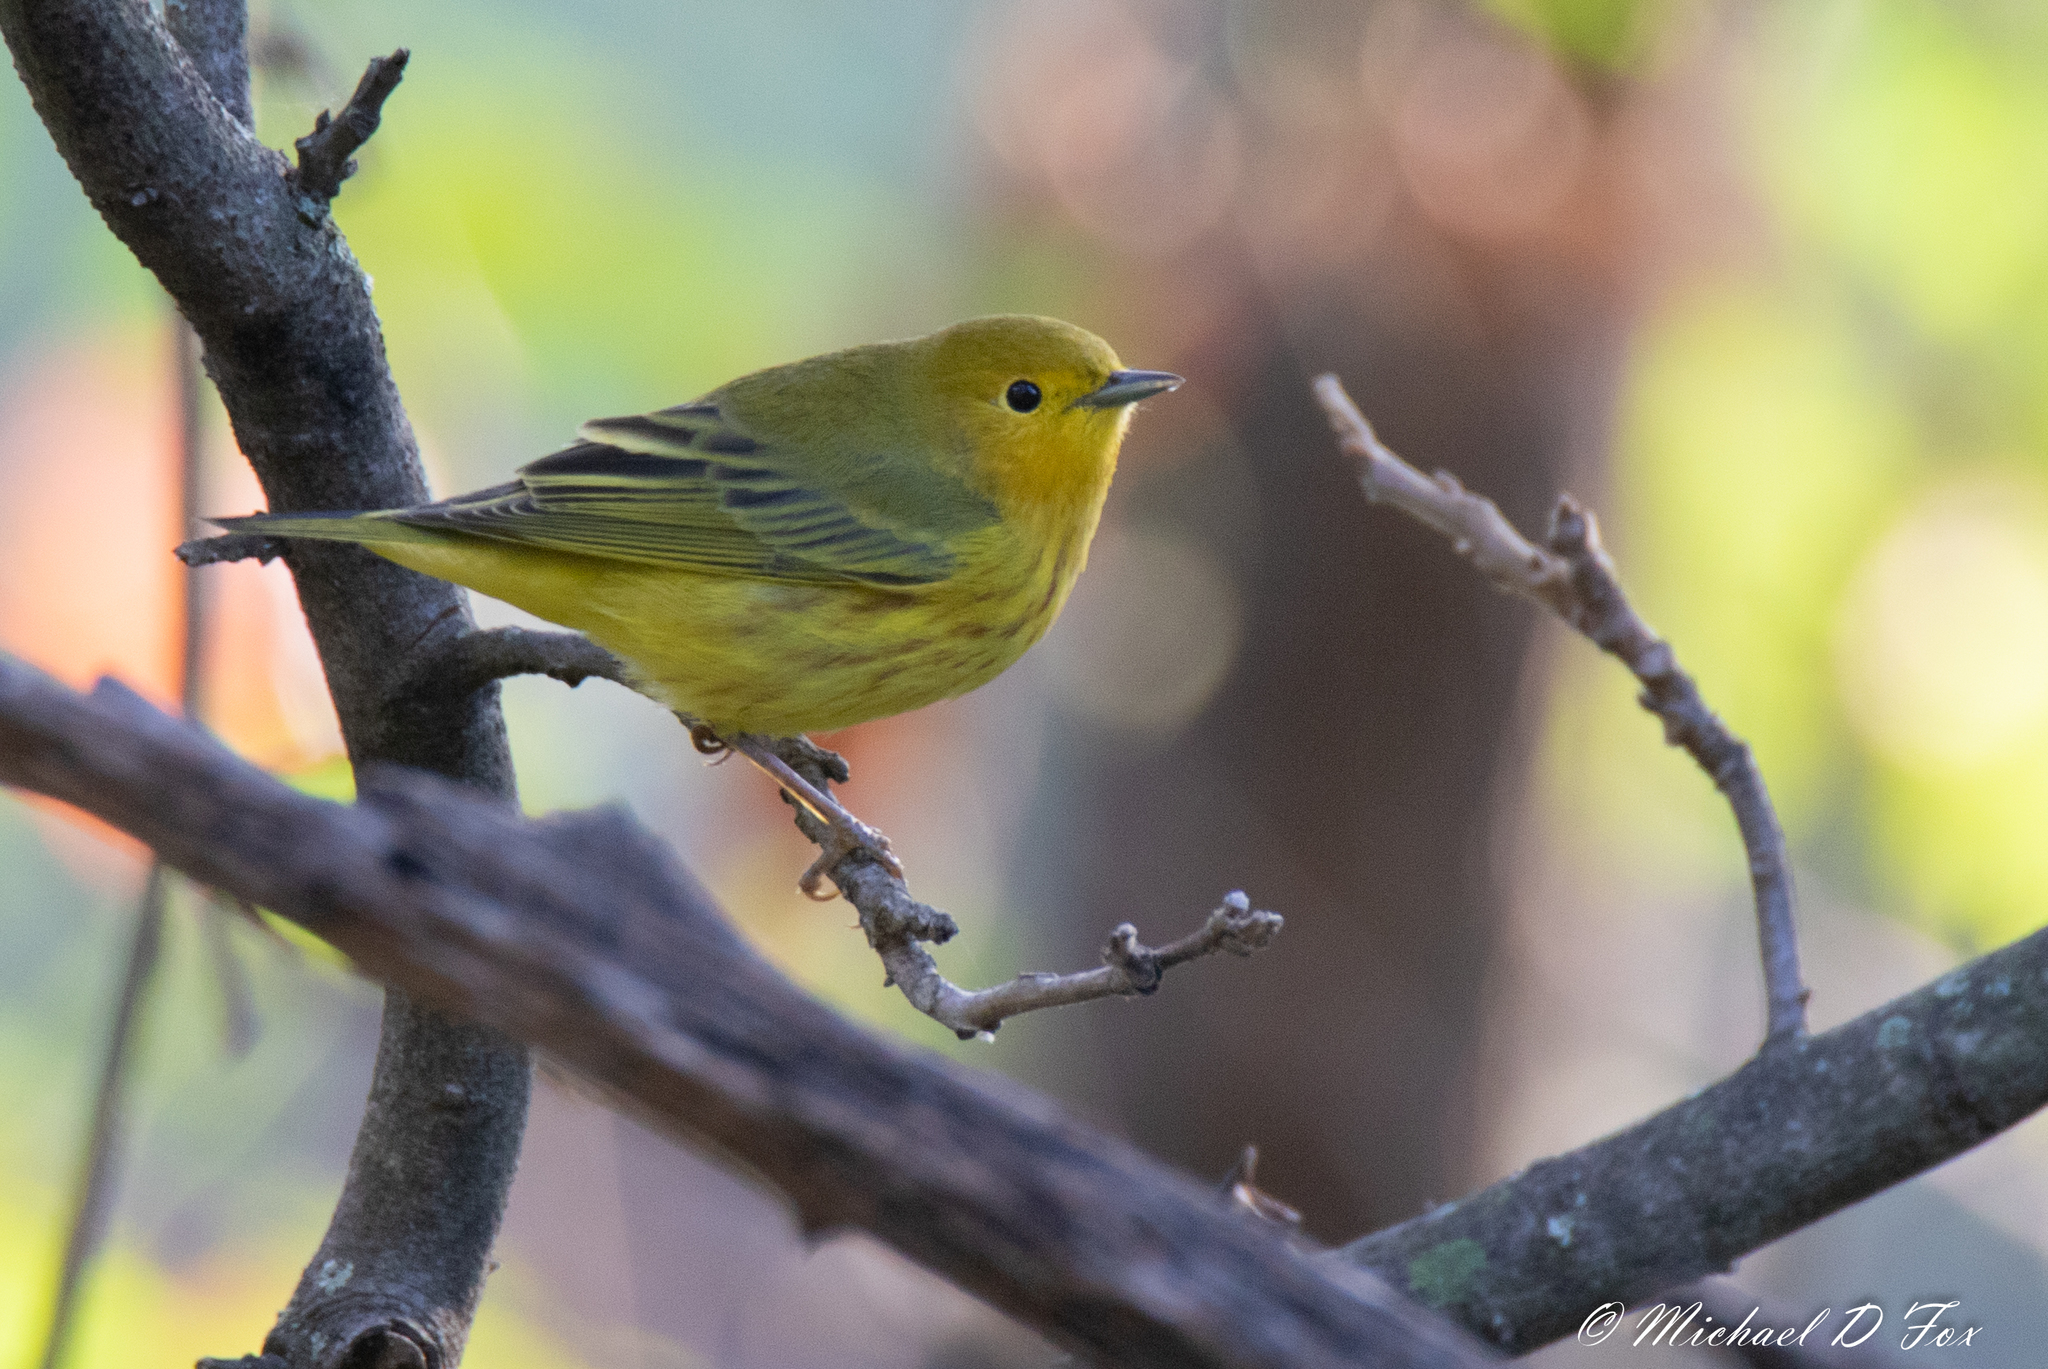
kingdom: Animalia
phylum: Chordata
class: Aves
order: Passeriformes
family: Parulidae
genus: Setophaga
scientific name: Setophaga petechia
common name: Yellow warbler
